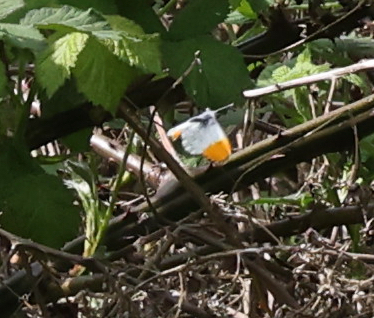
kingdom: Animalia
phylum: Arthropoda
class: Insecta
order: Lepidoptera
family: Pieridae
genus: Anthocharis
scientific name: Anthocharis cardamines
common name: Orange-tip
